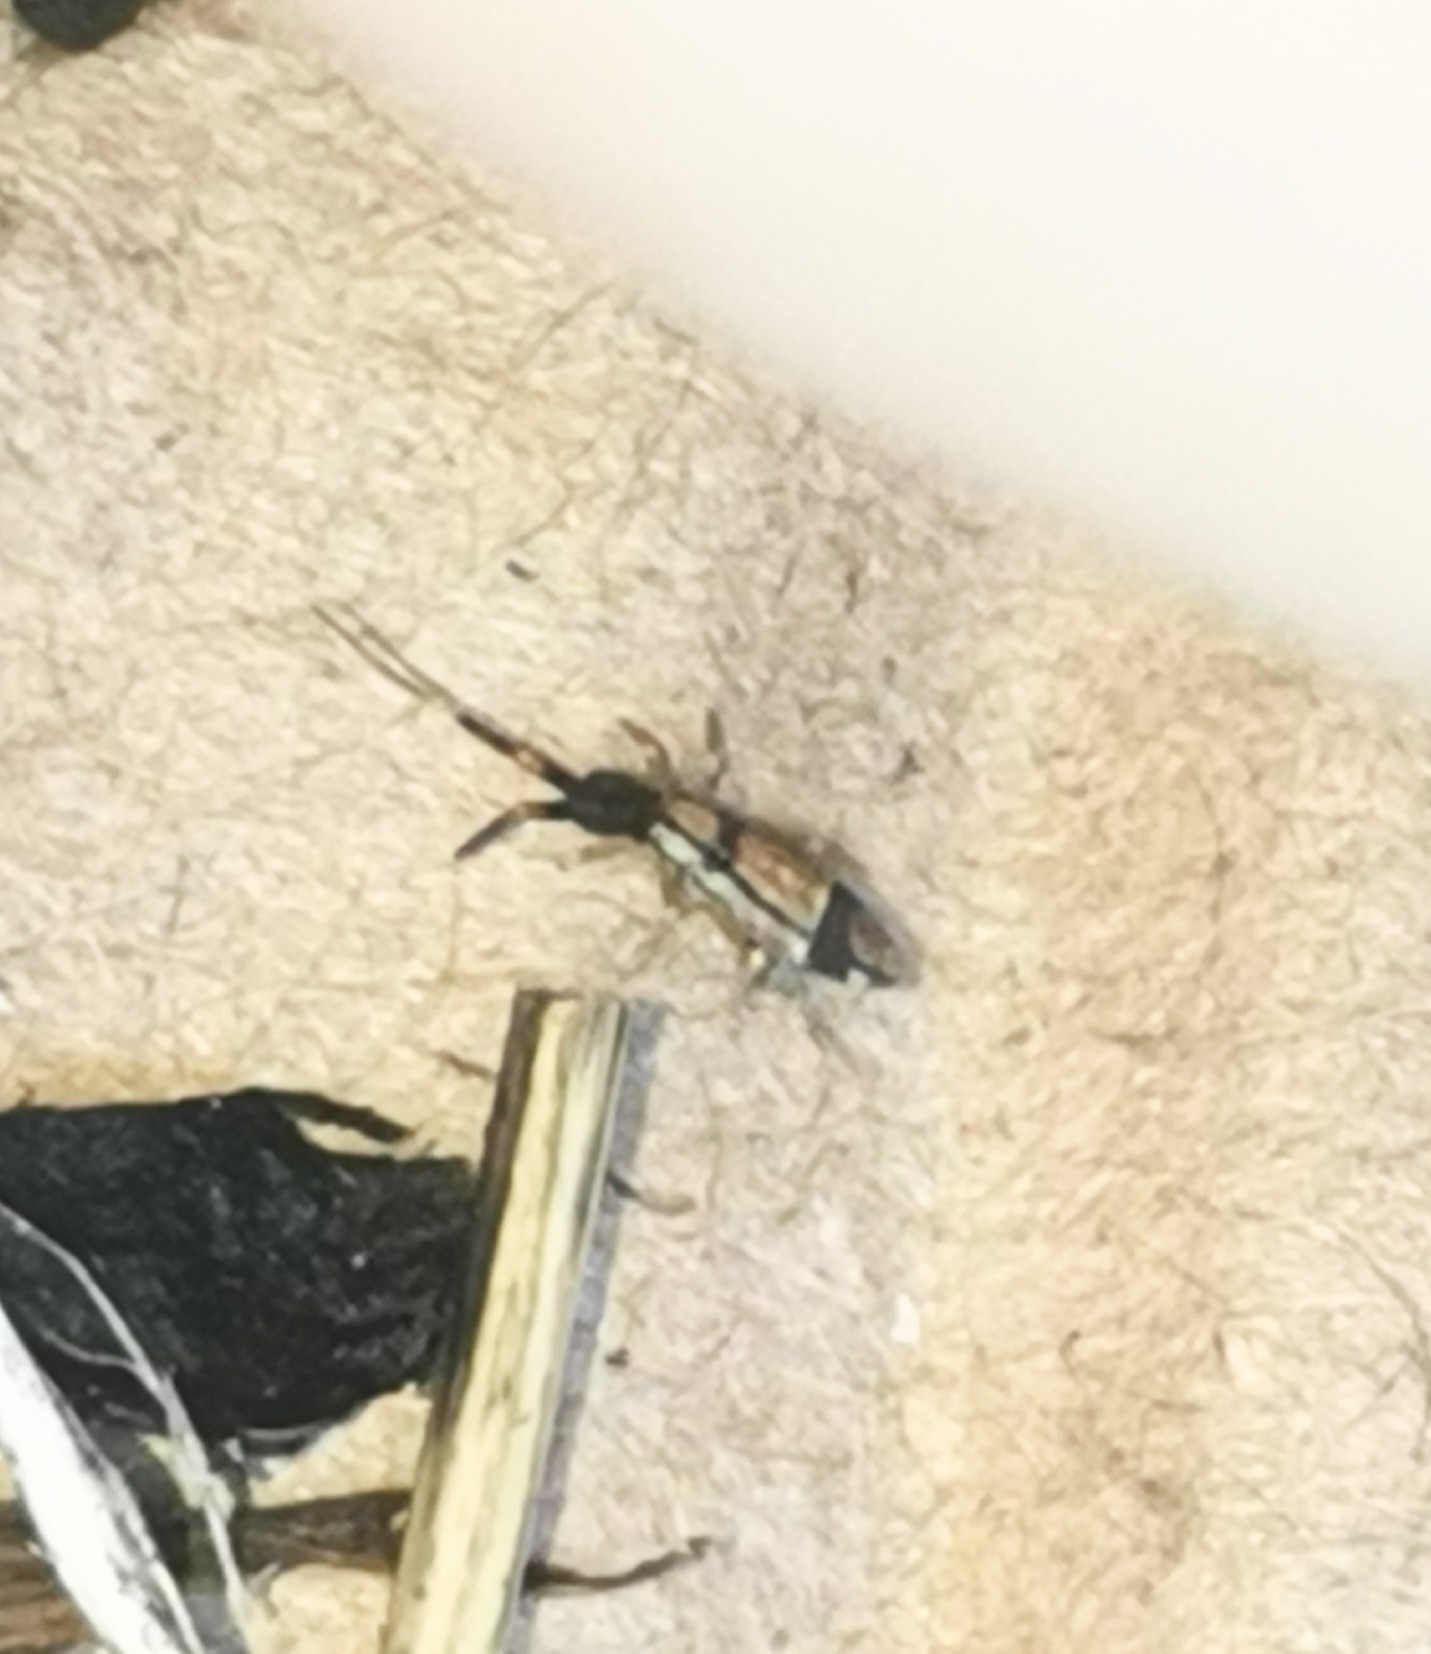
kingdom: Animalia
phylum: Arthropoda
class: Collembola
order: Entomobryomorpha
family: Entomobryidae
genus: Entomobrya
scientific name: Entomobrya nivalis
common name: Cosmopolitan springtail
